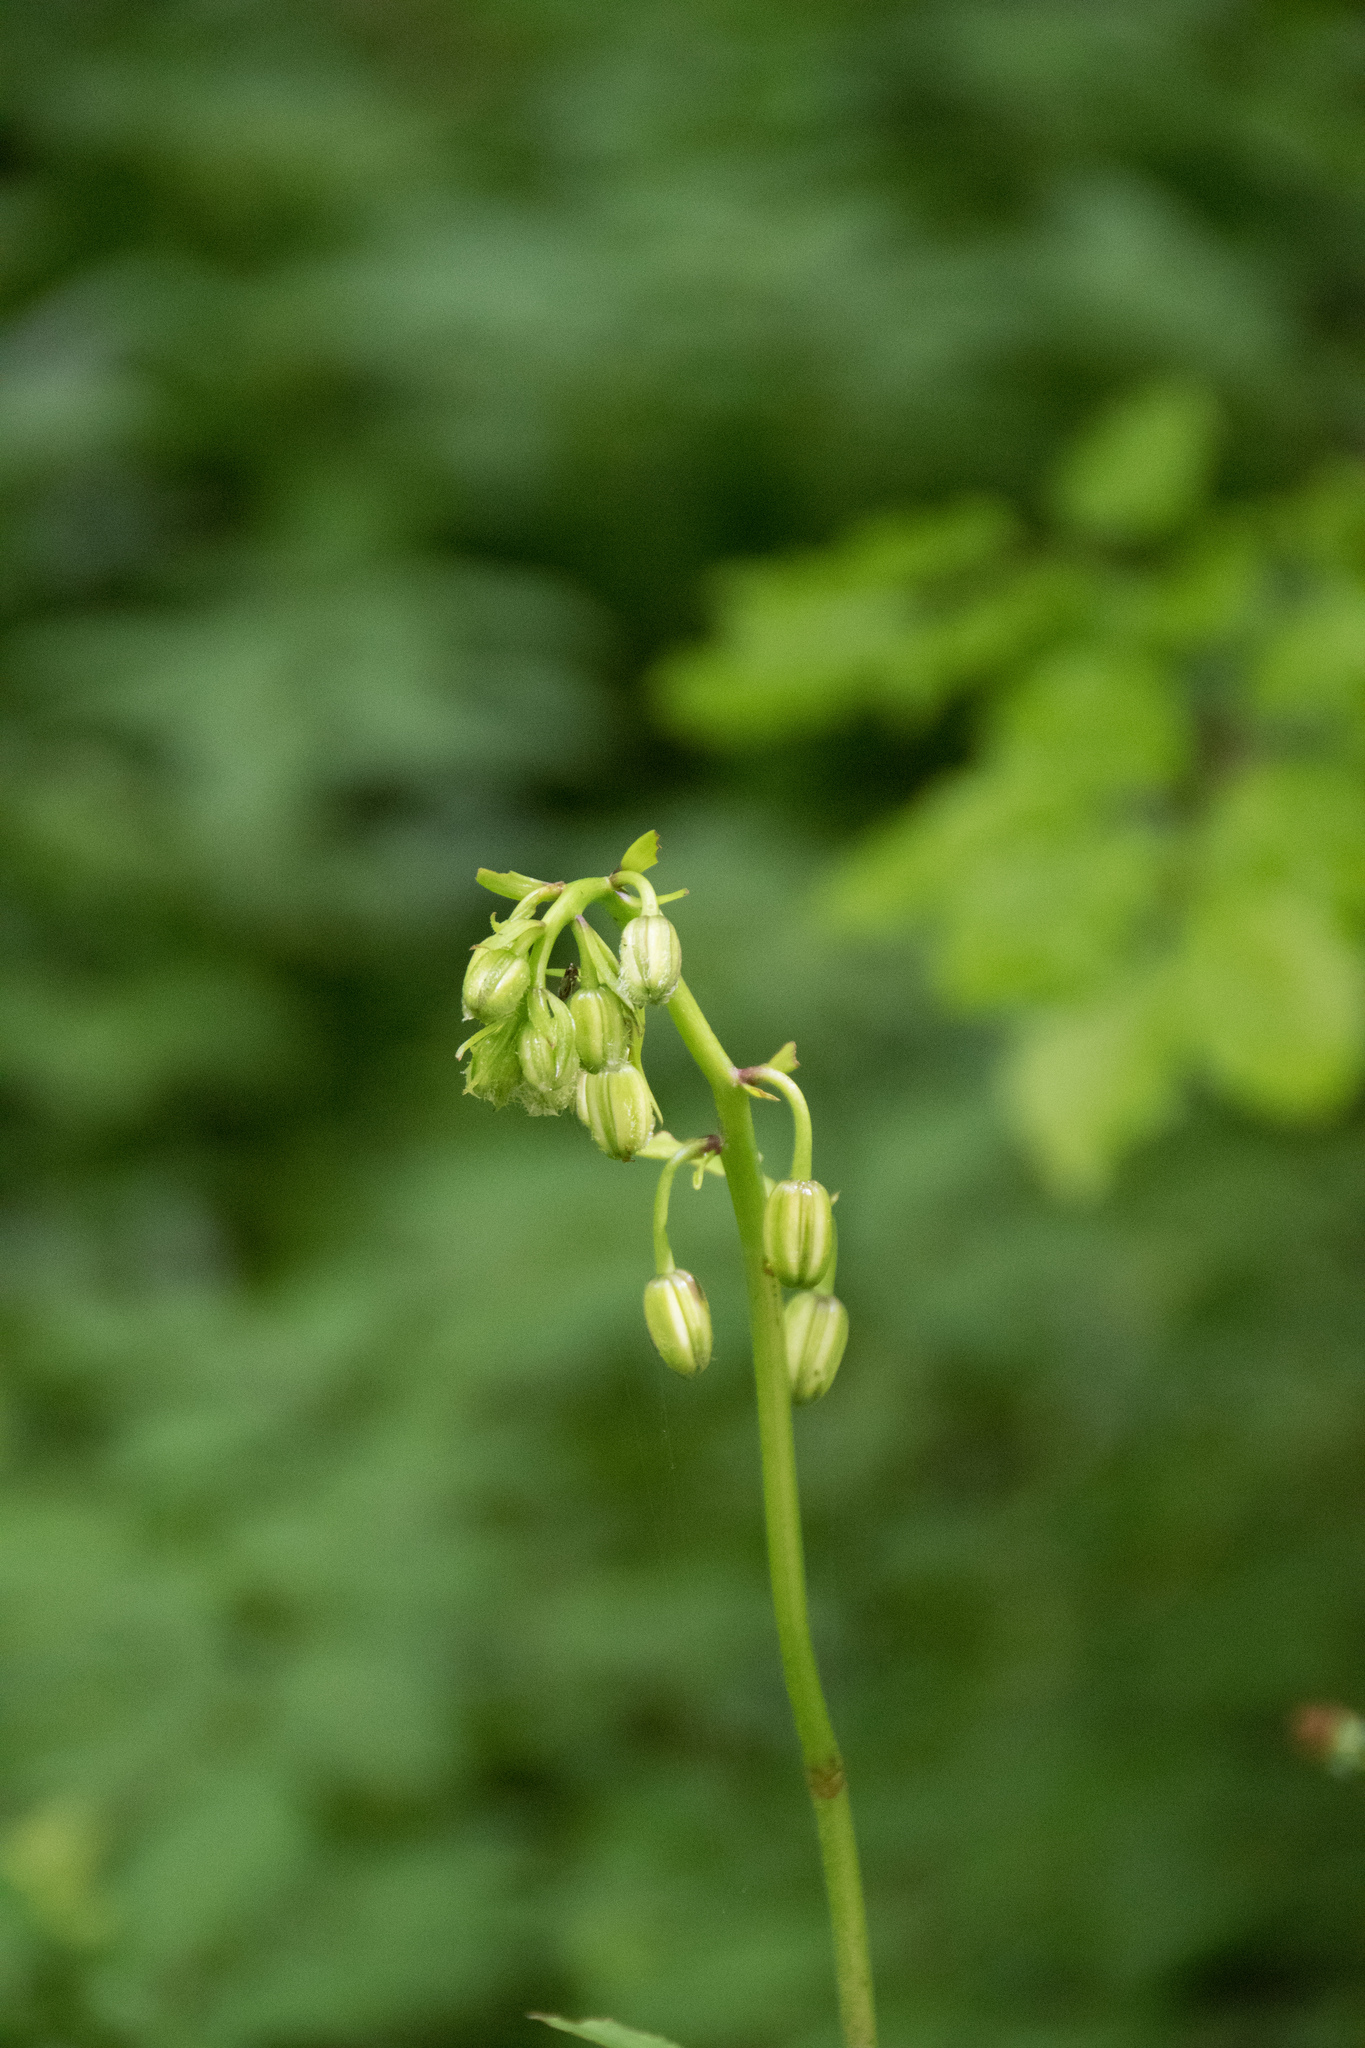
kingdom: Plantae
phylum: Tracheophyta
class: Liliopsida
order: Liliales
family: Liliaceae
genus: Lilium
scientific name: Lilium martagon
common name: Martagon lily
